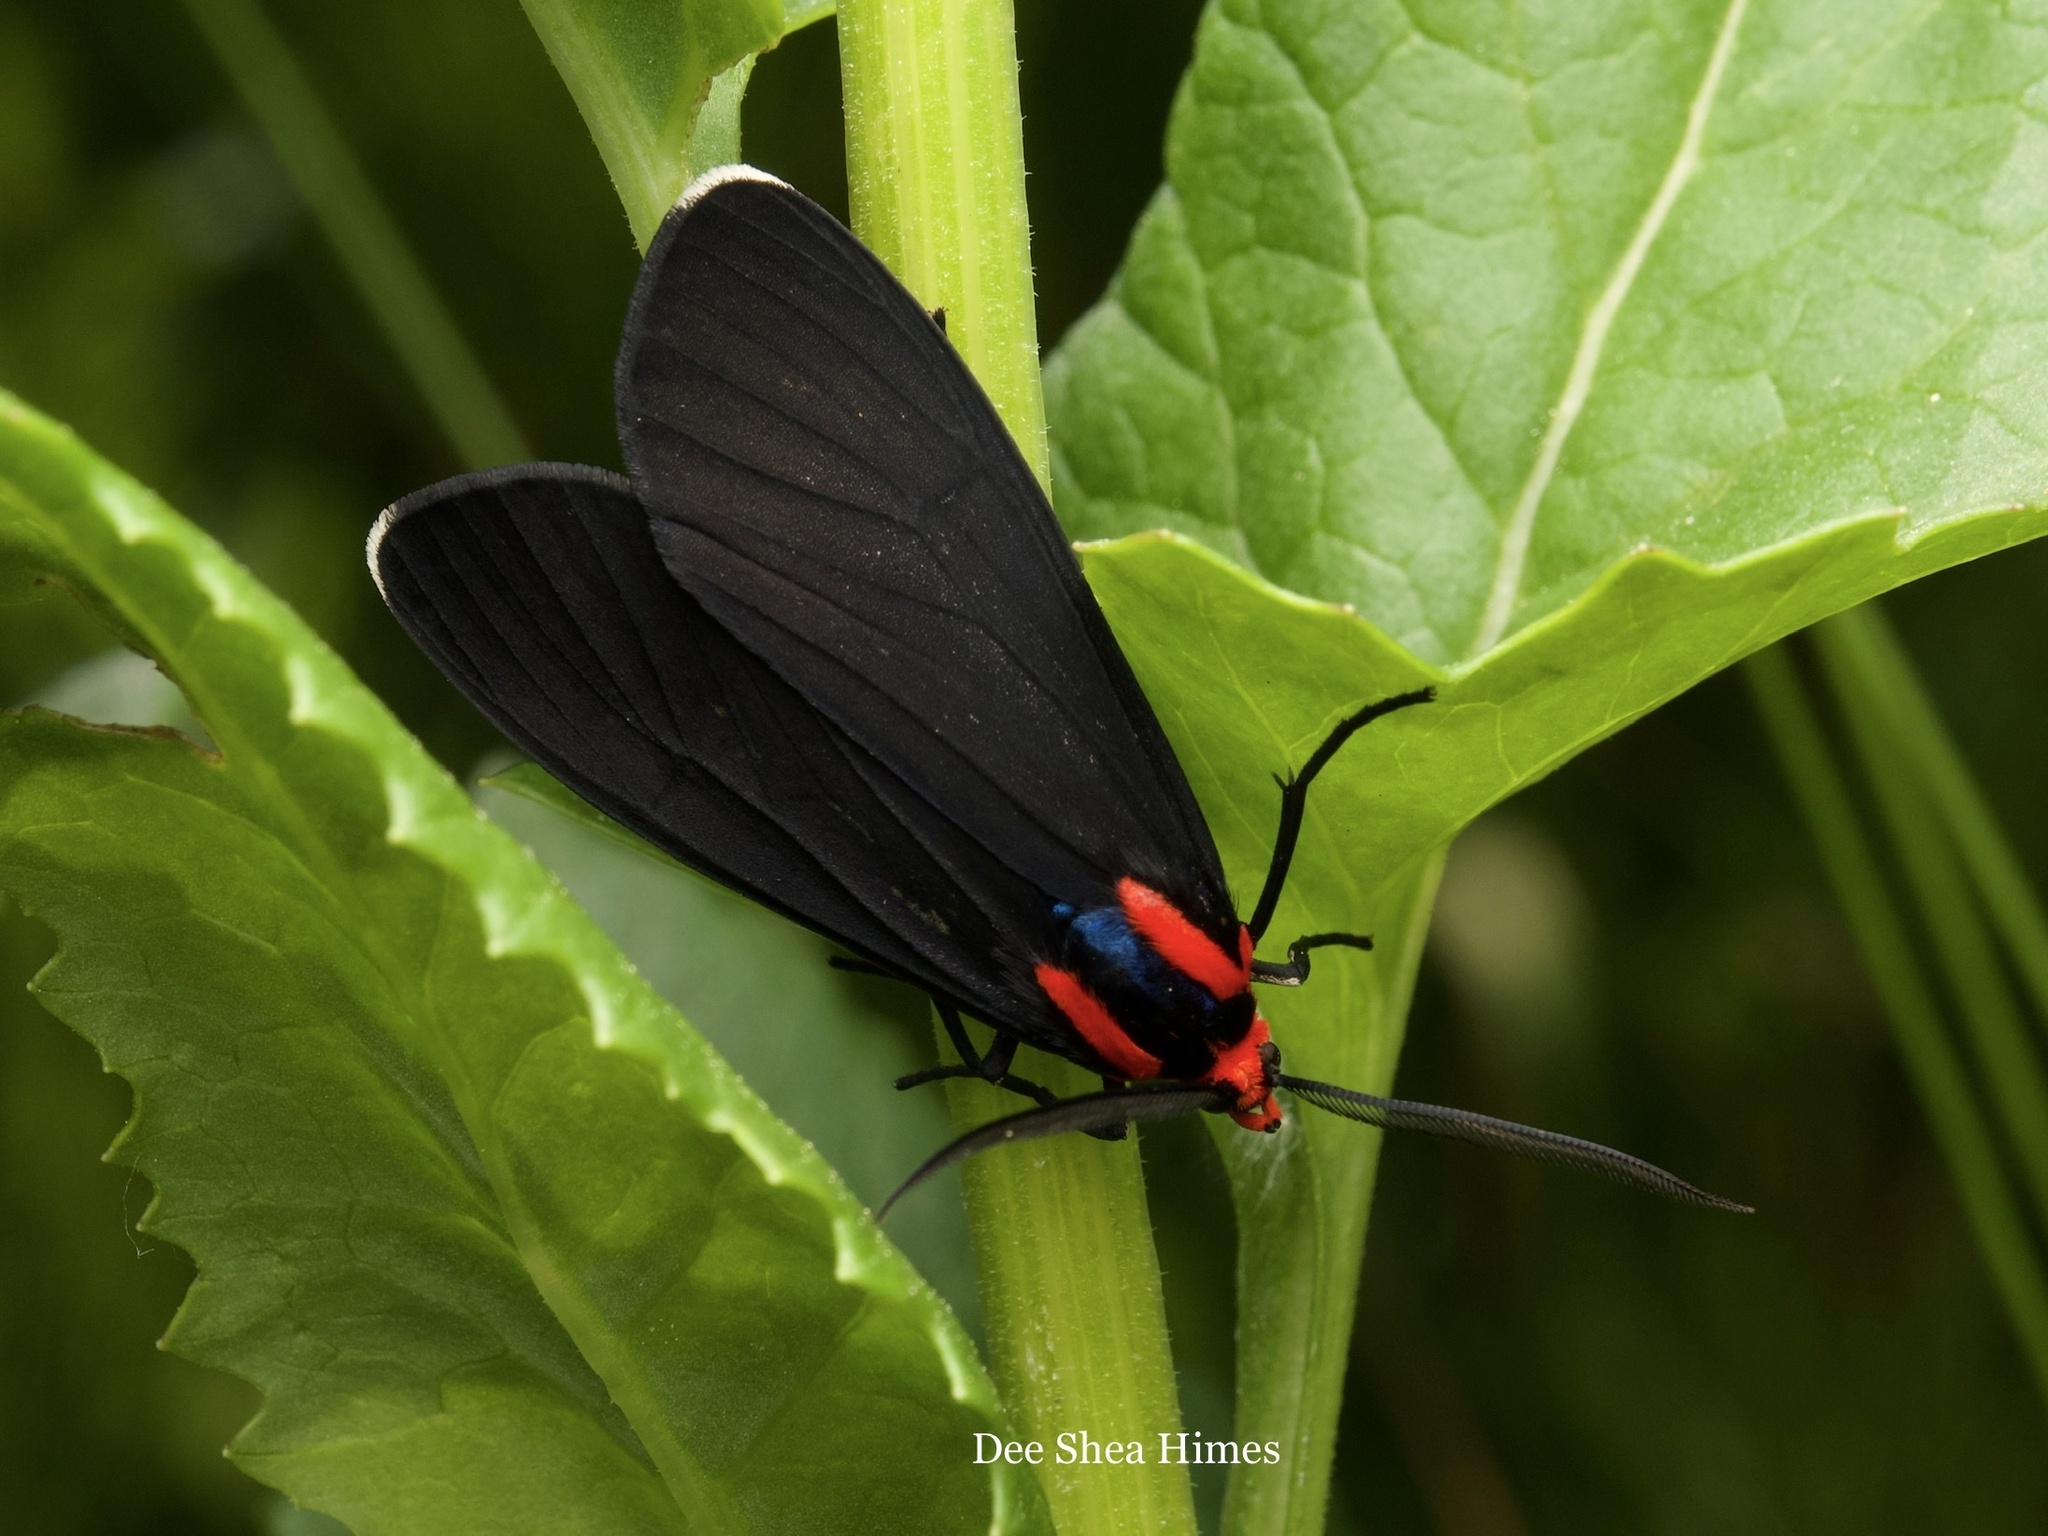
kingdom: Animalia
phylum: Arthropoda
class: Insecta
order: Lepidoptera
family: Erebidae
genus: Ctenucha
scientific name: Ctenucha rubroscapus
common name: Red-shouldered ctenucha
